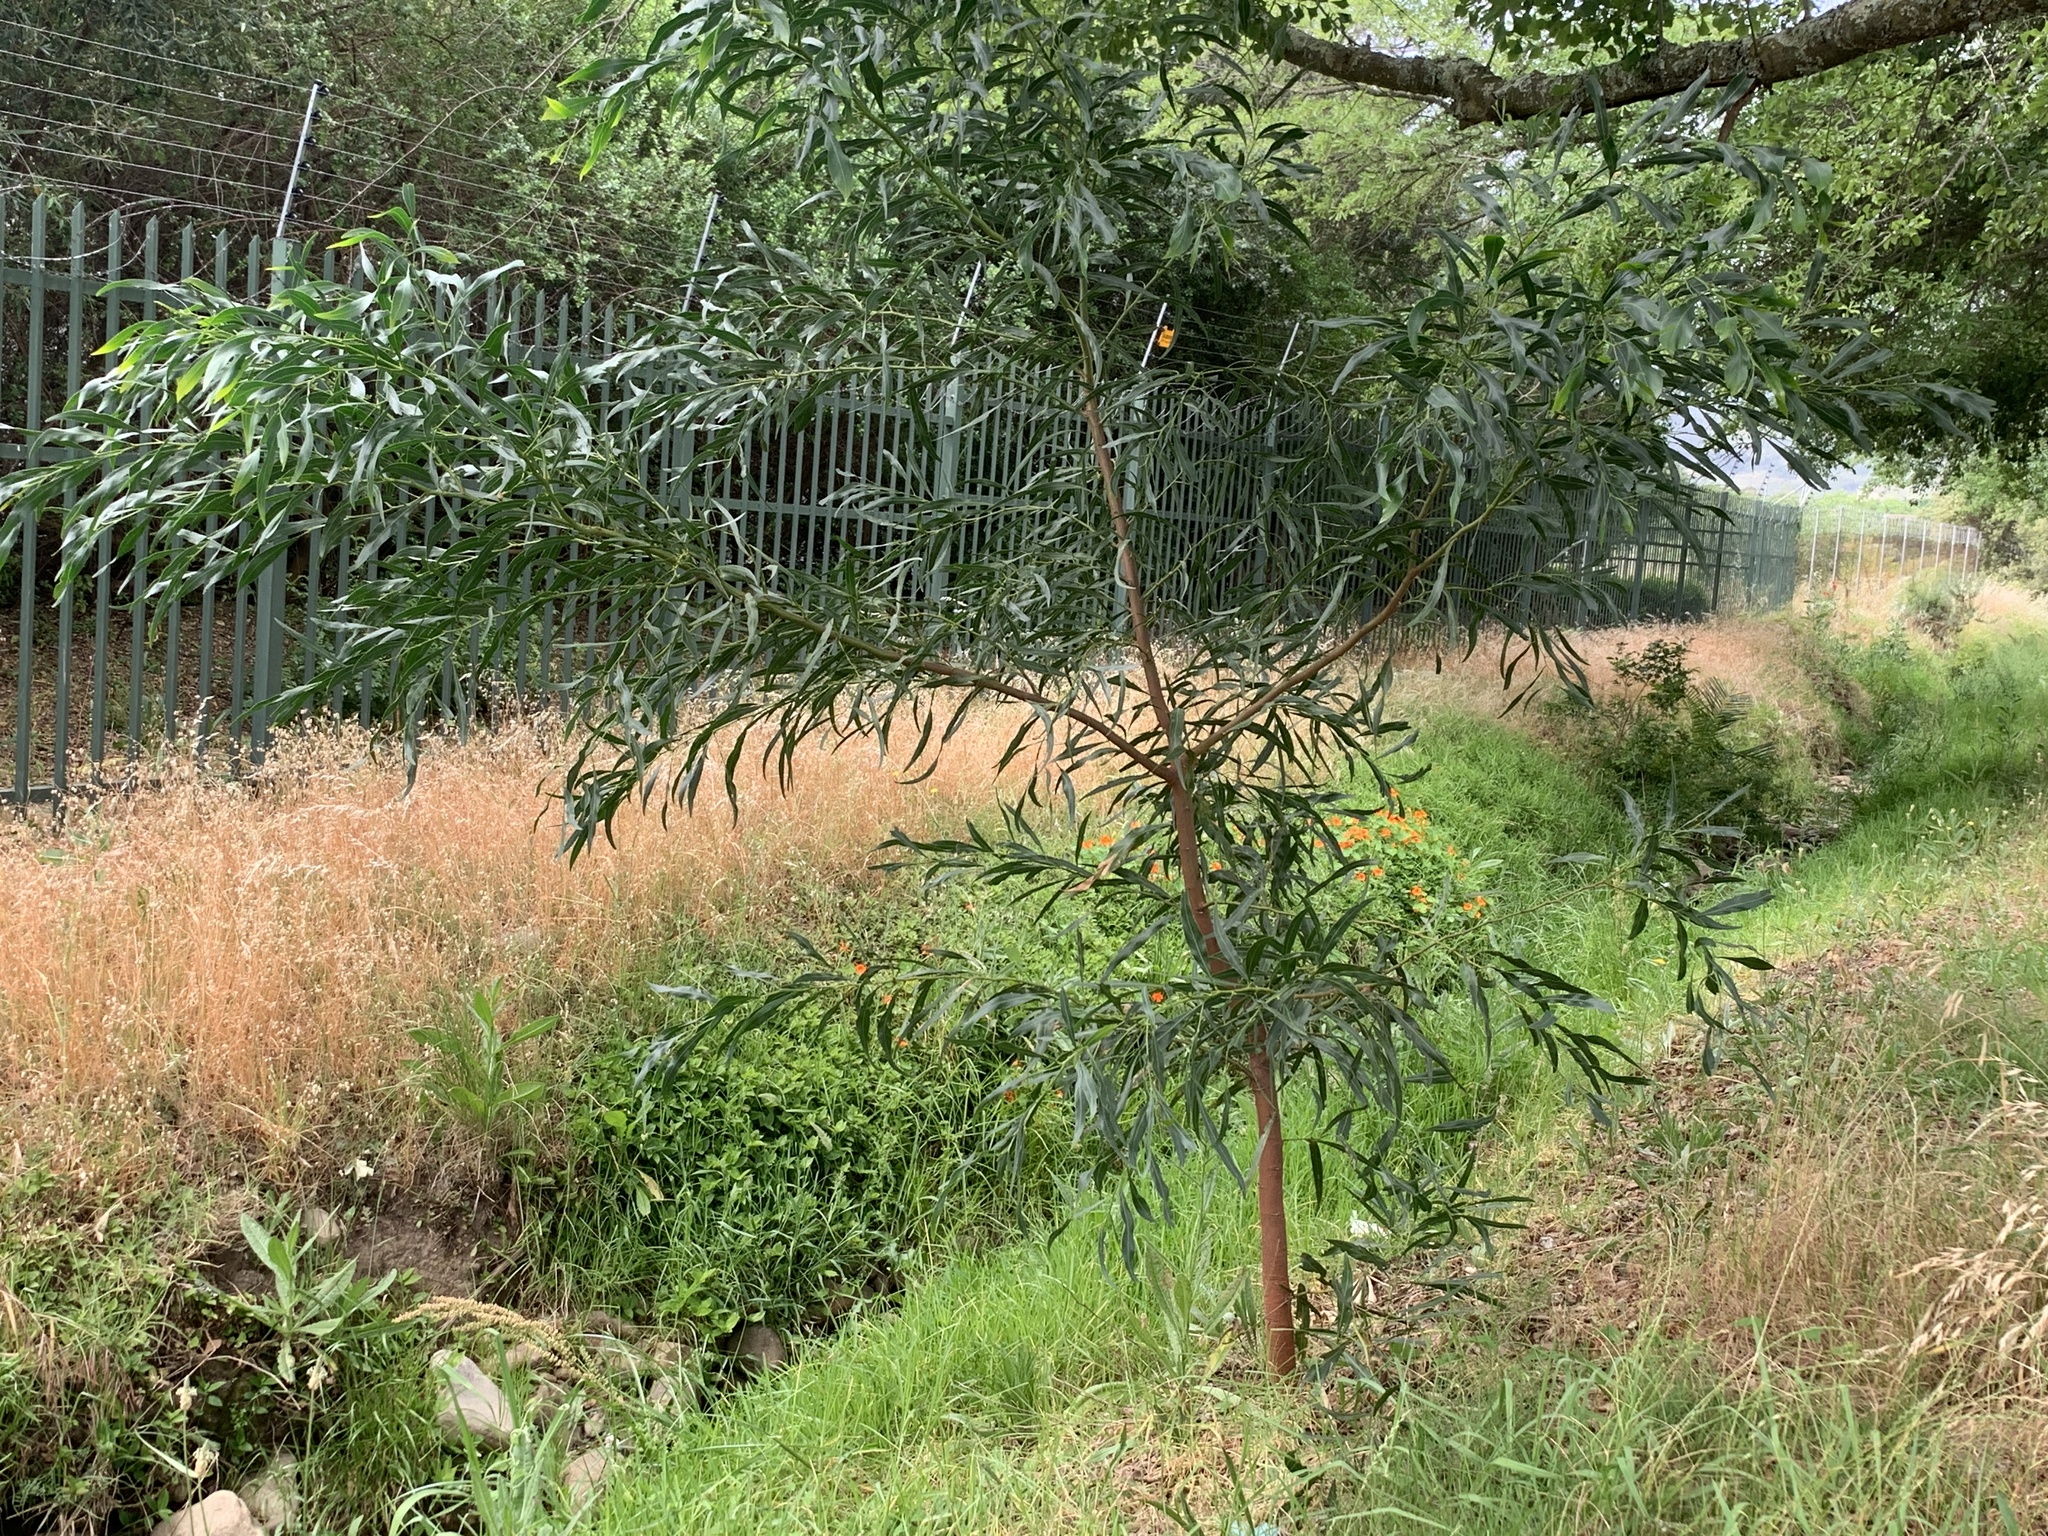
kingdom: Plantae
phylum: Tracheophyta
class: Magnoliopsida
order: Fabales
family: Fabaceae
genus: Acacia
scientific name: Acacia saligna
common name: Orange wattle
